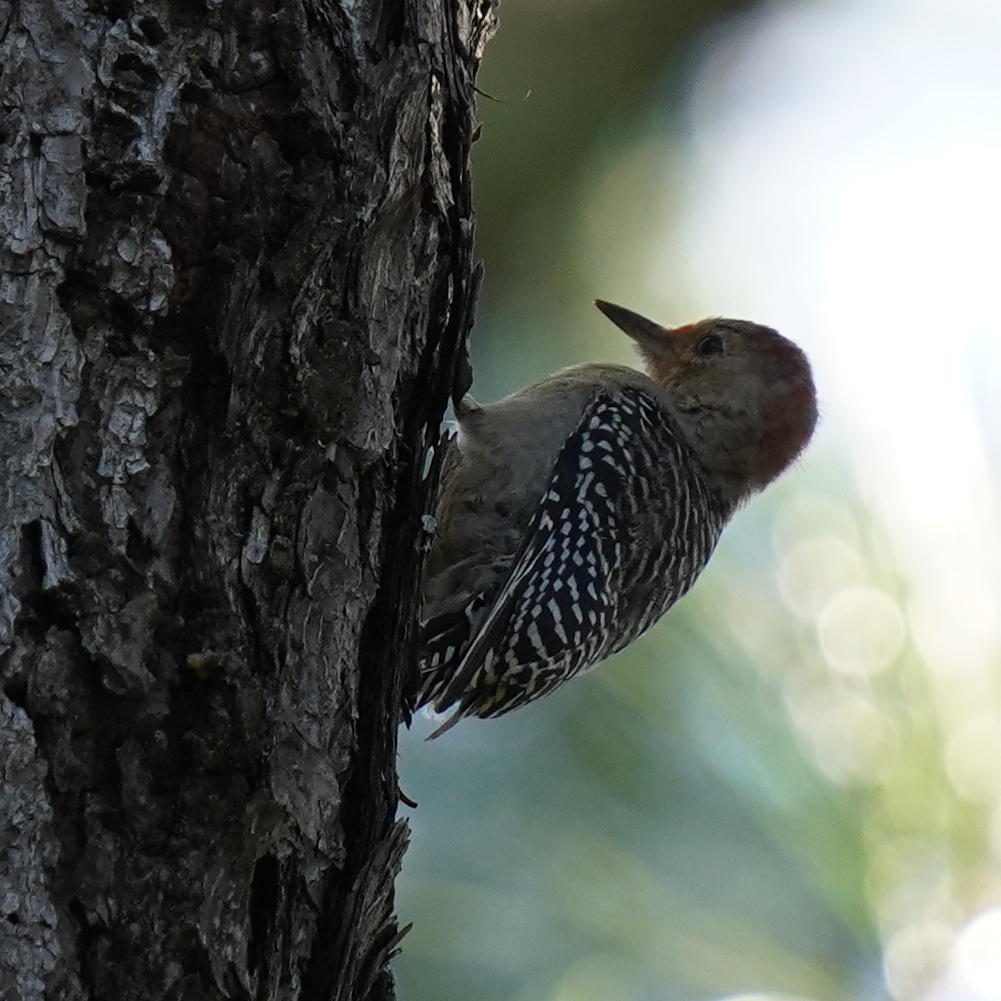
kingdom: Animalia
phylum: Chordata
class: Aves
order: Piciformes
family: Picidae
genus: Melanerpes
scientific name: Melanerpes carolinus
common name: Red-bellied woodpecker
